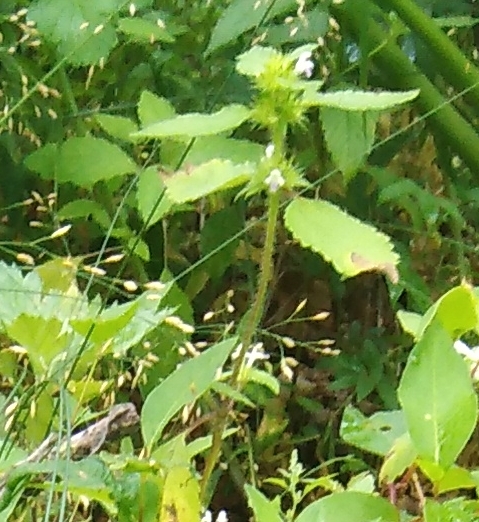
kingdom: Plantae
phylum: Tracheophyta
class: Magnoliopsida
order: Lamiales
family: Lamiaceae
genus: Galeopsis
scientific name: Galeopsis bifida
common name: Bifid hemp-nettle
